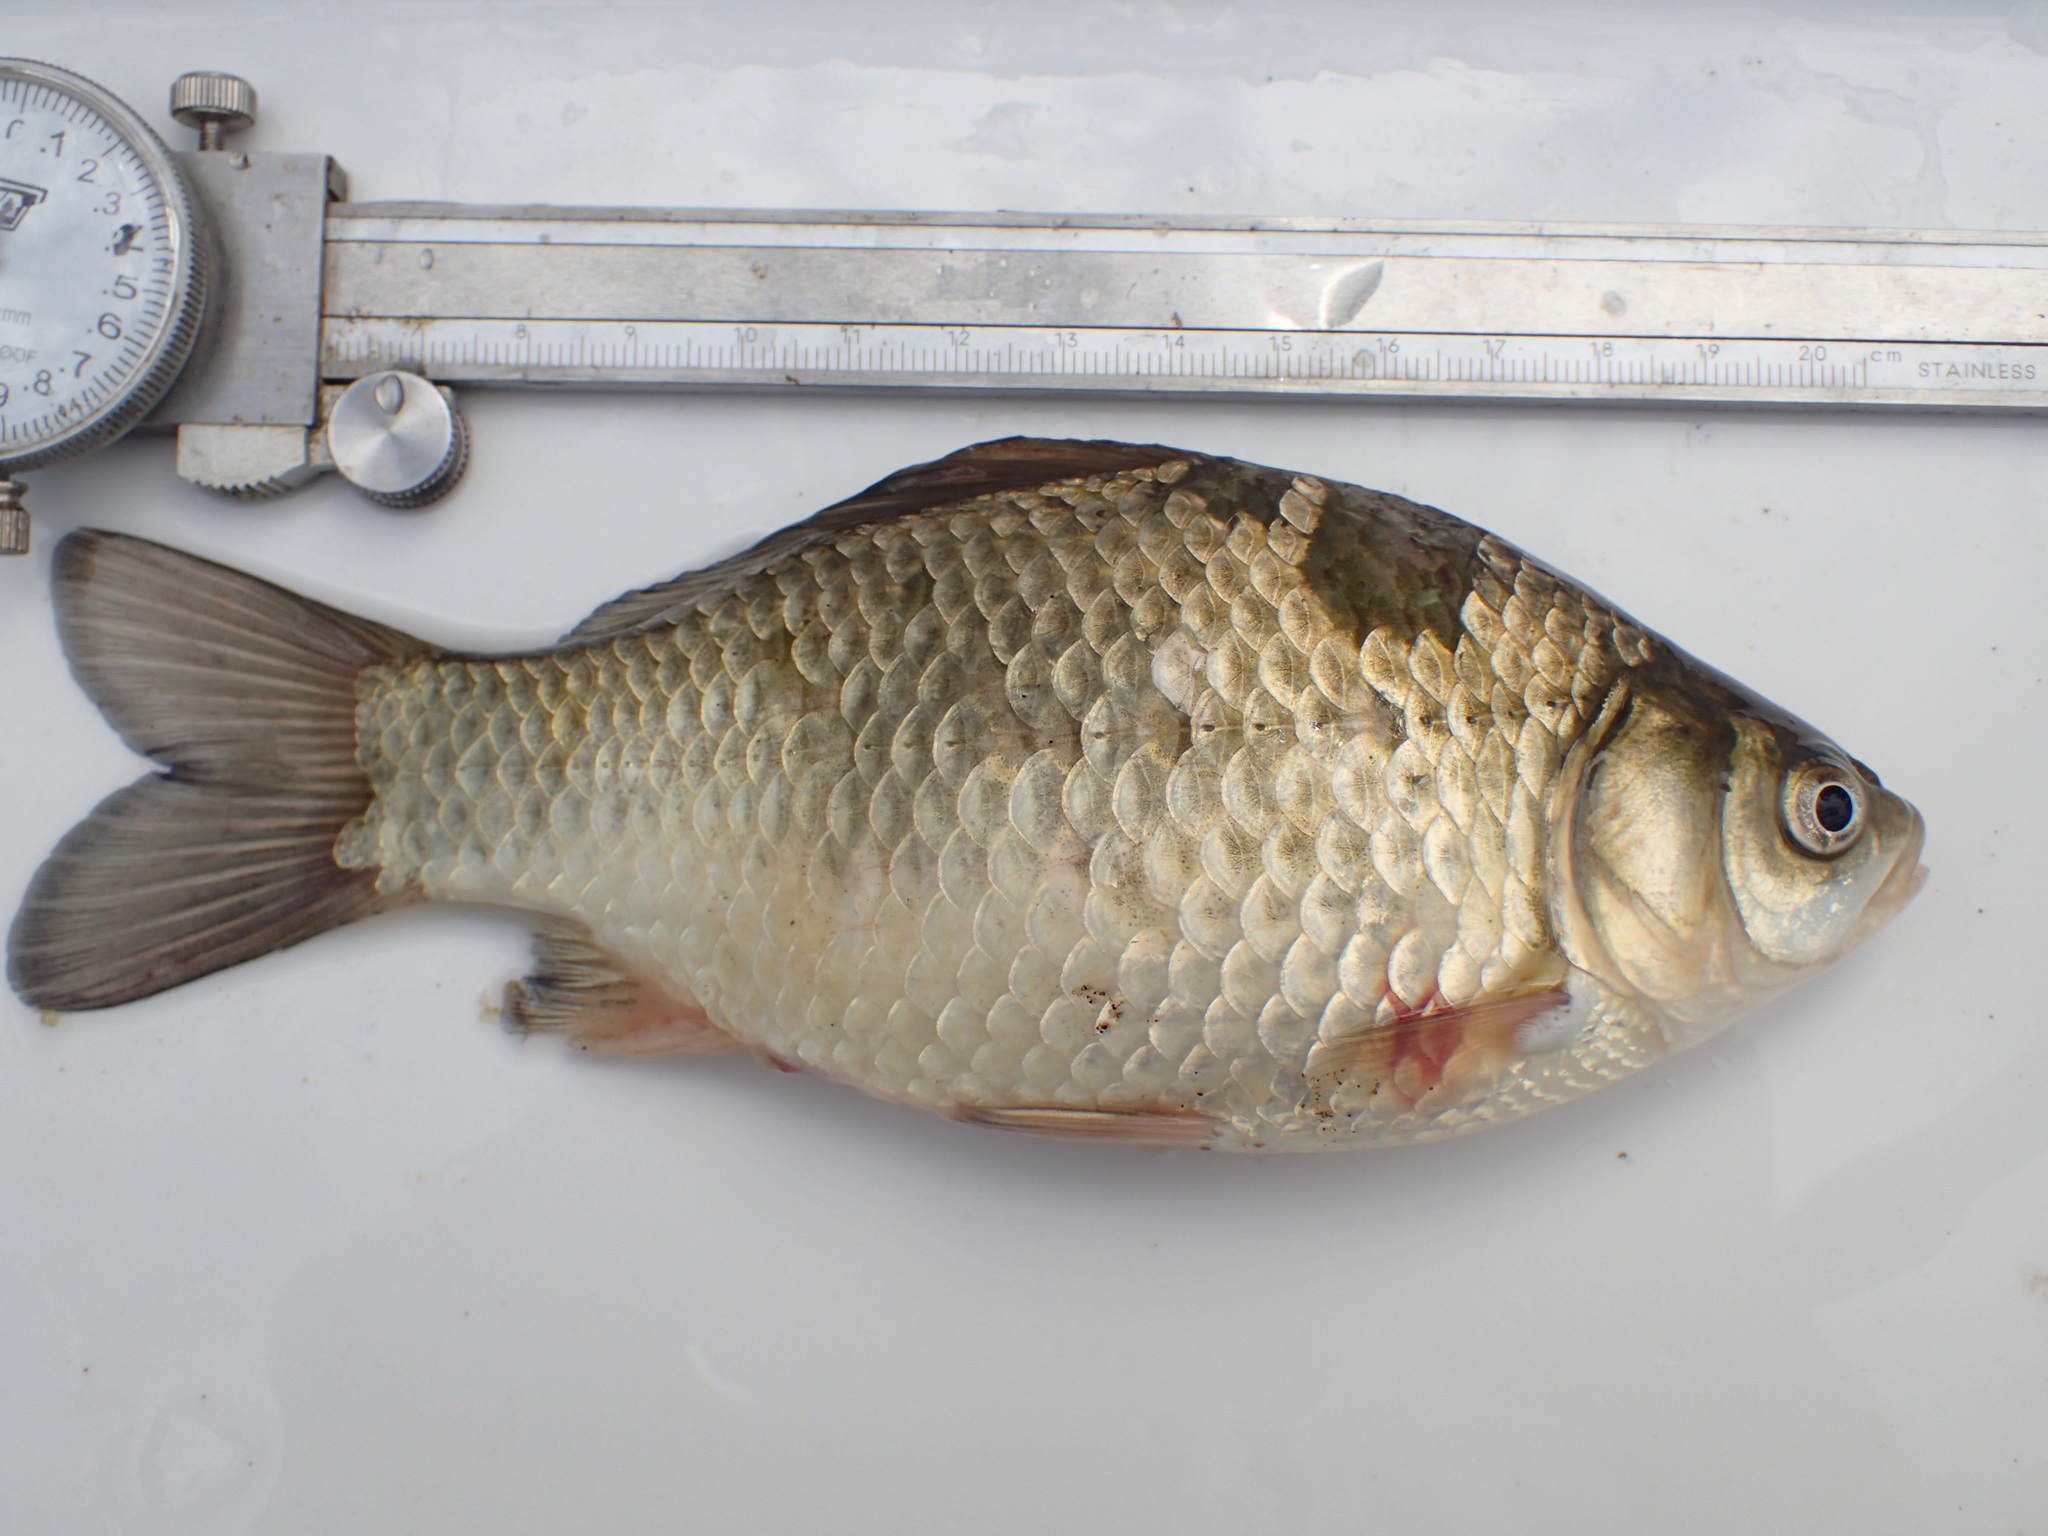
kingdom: Animalia
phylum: Chordata
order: Cypriniformes
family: Cyprinidae
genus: Carassius
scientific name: Carassius auratus
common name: Goldfish
